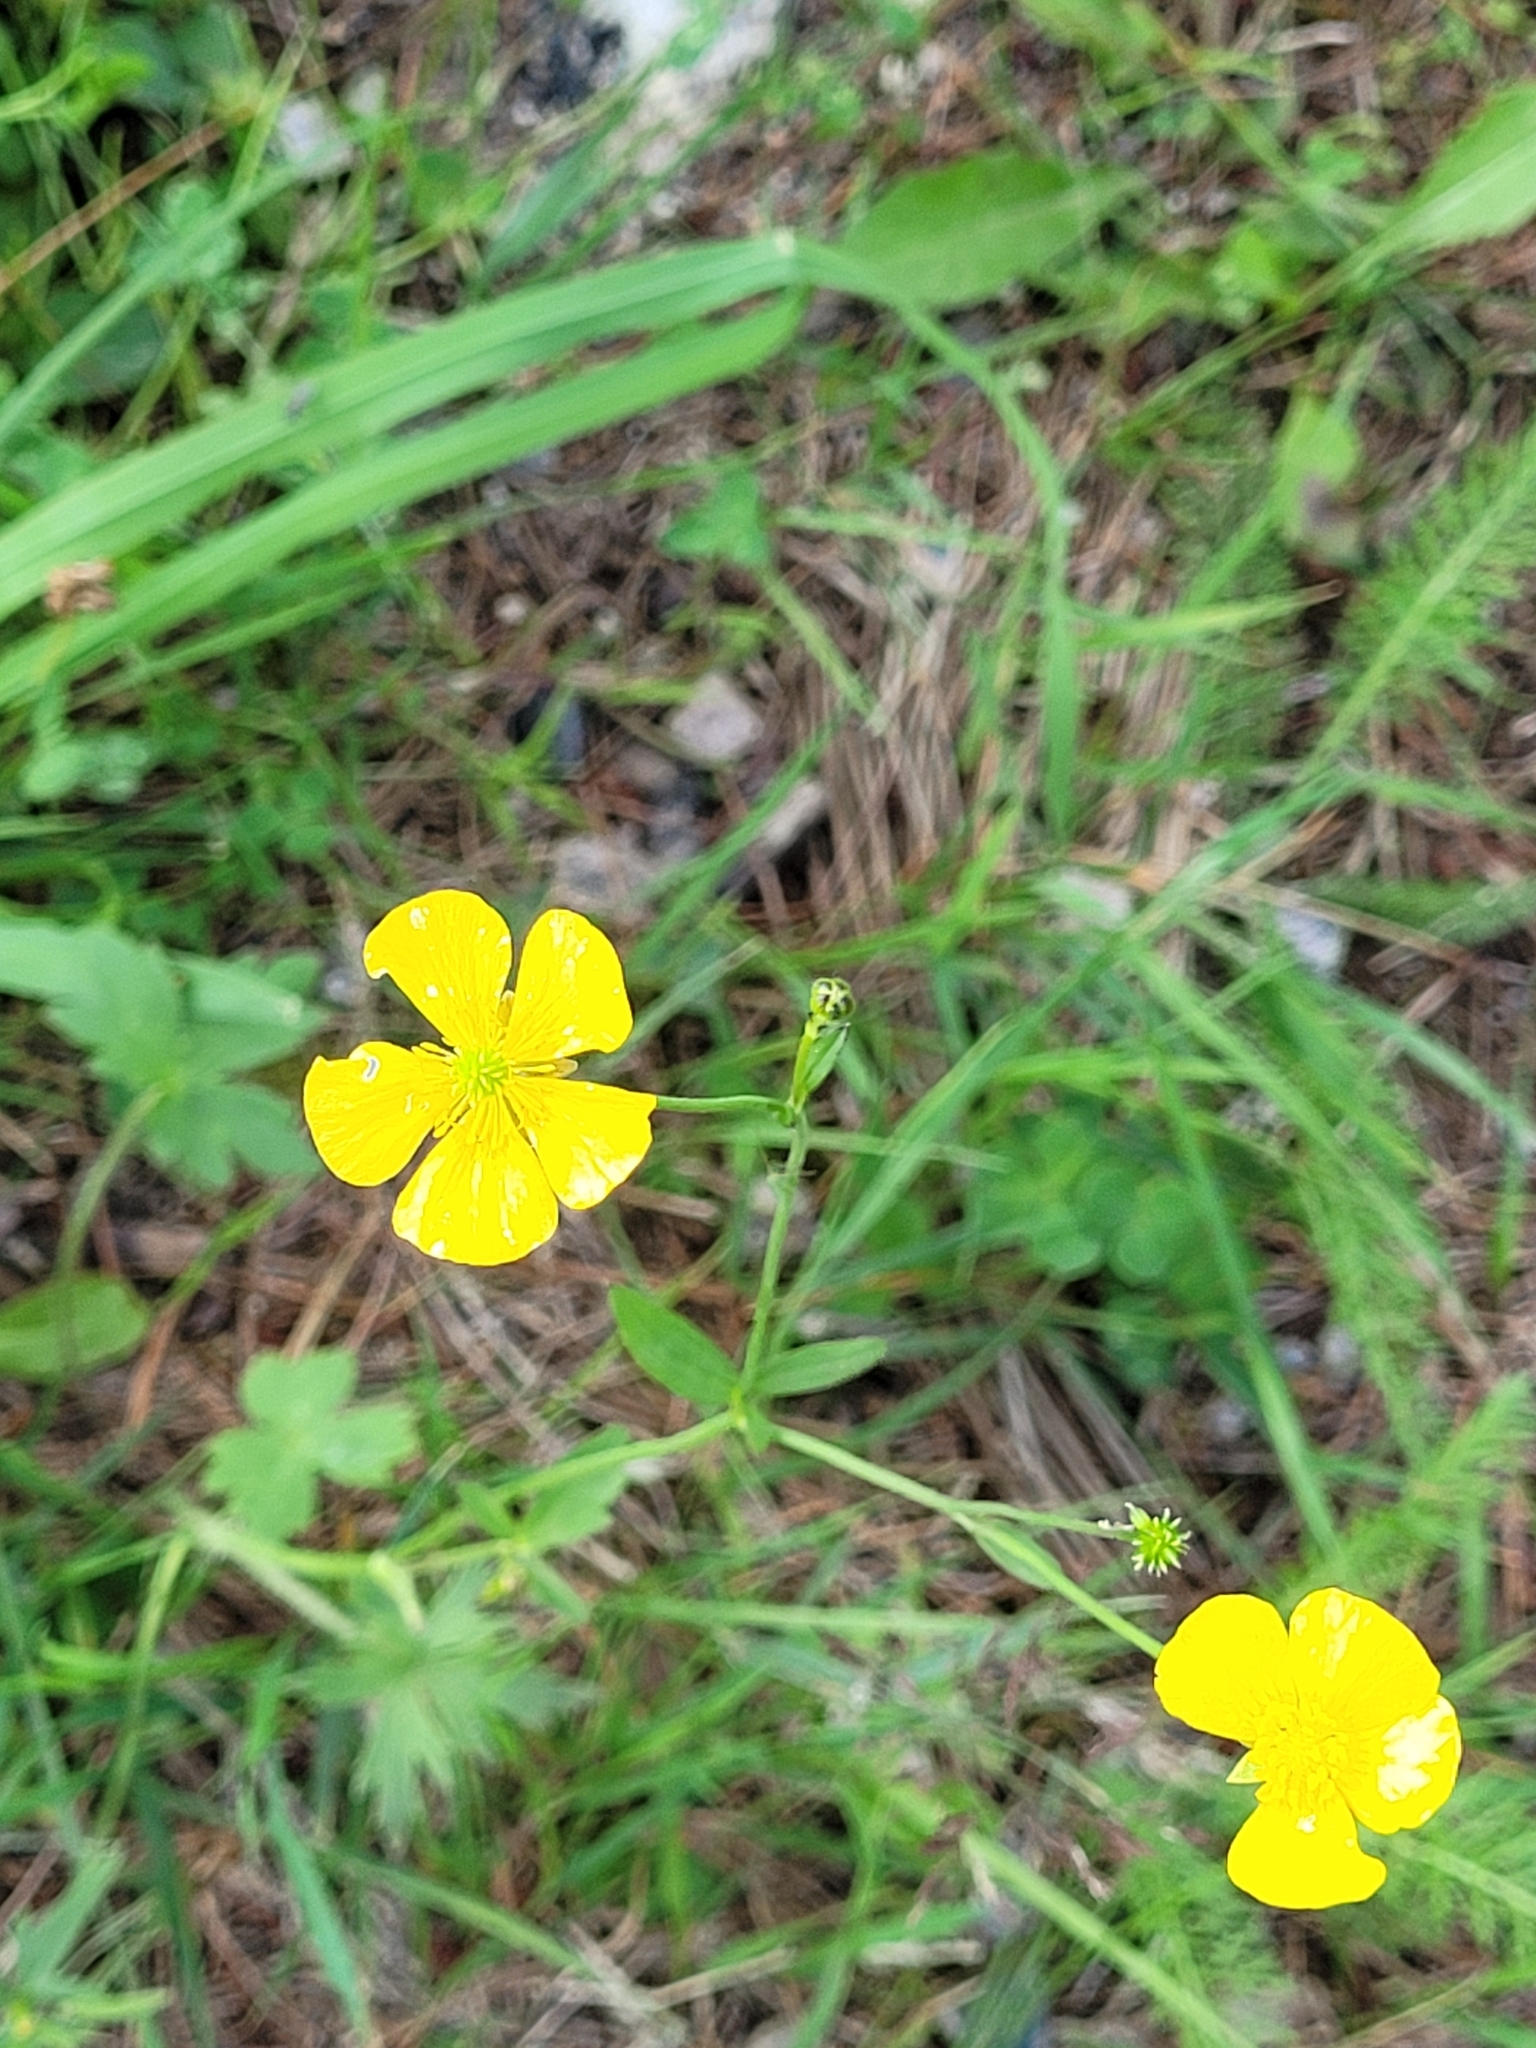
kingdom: Plantae
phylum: Tracheophyta
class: Magnoliopsida
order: Ranunculales
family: Ranunculaceae
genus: Ranunculus
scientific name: Ranunculus acris
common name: Meadow buttercup
